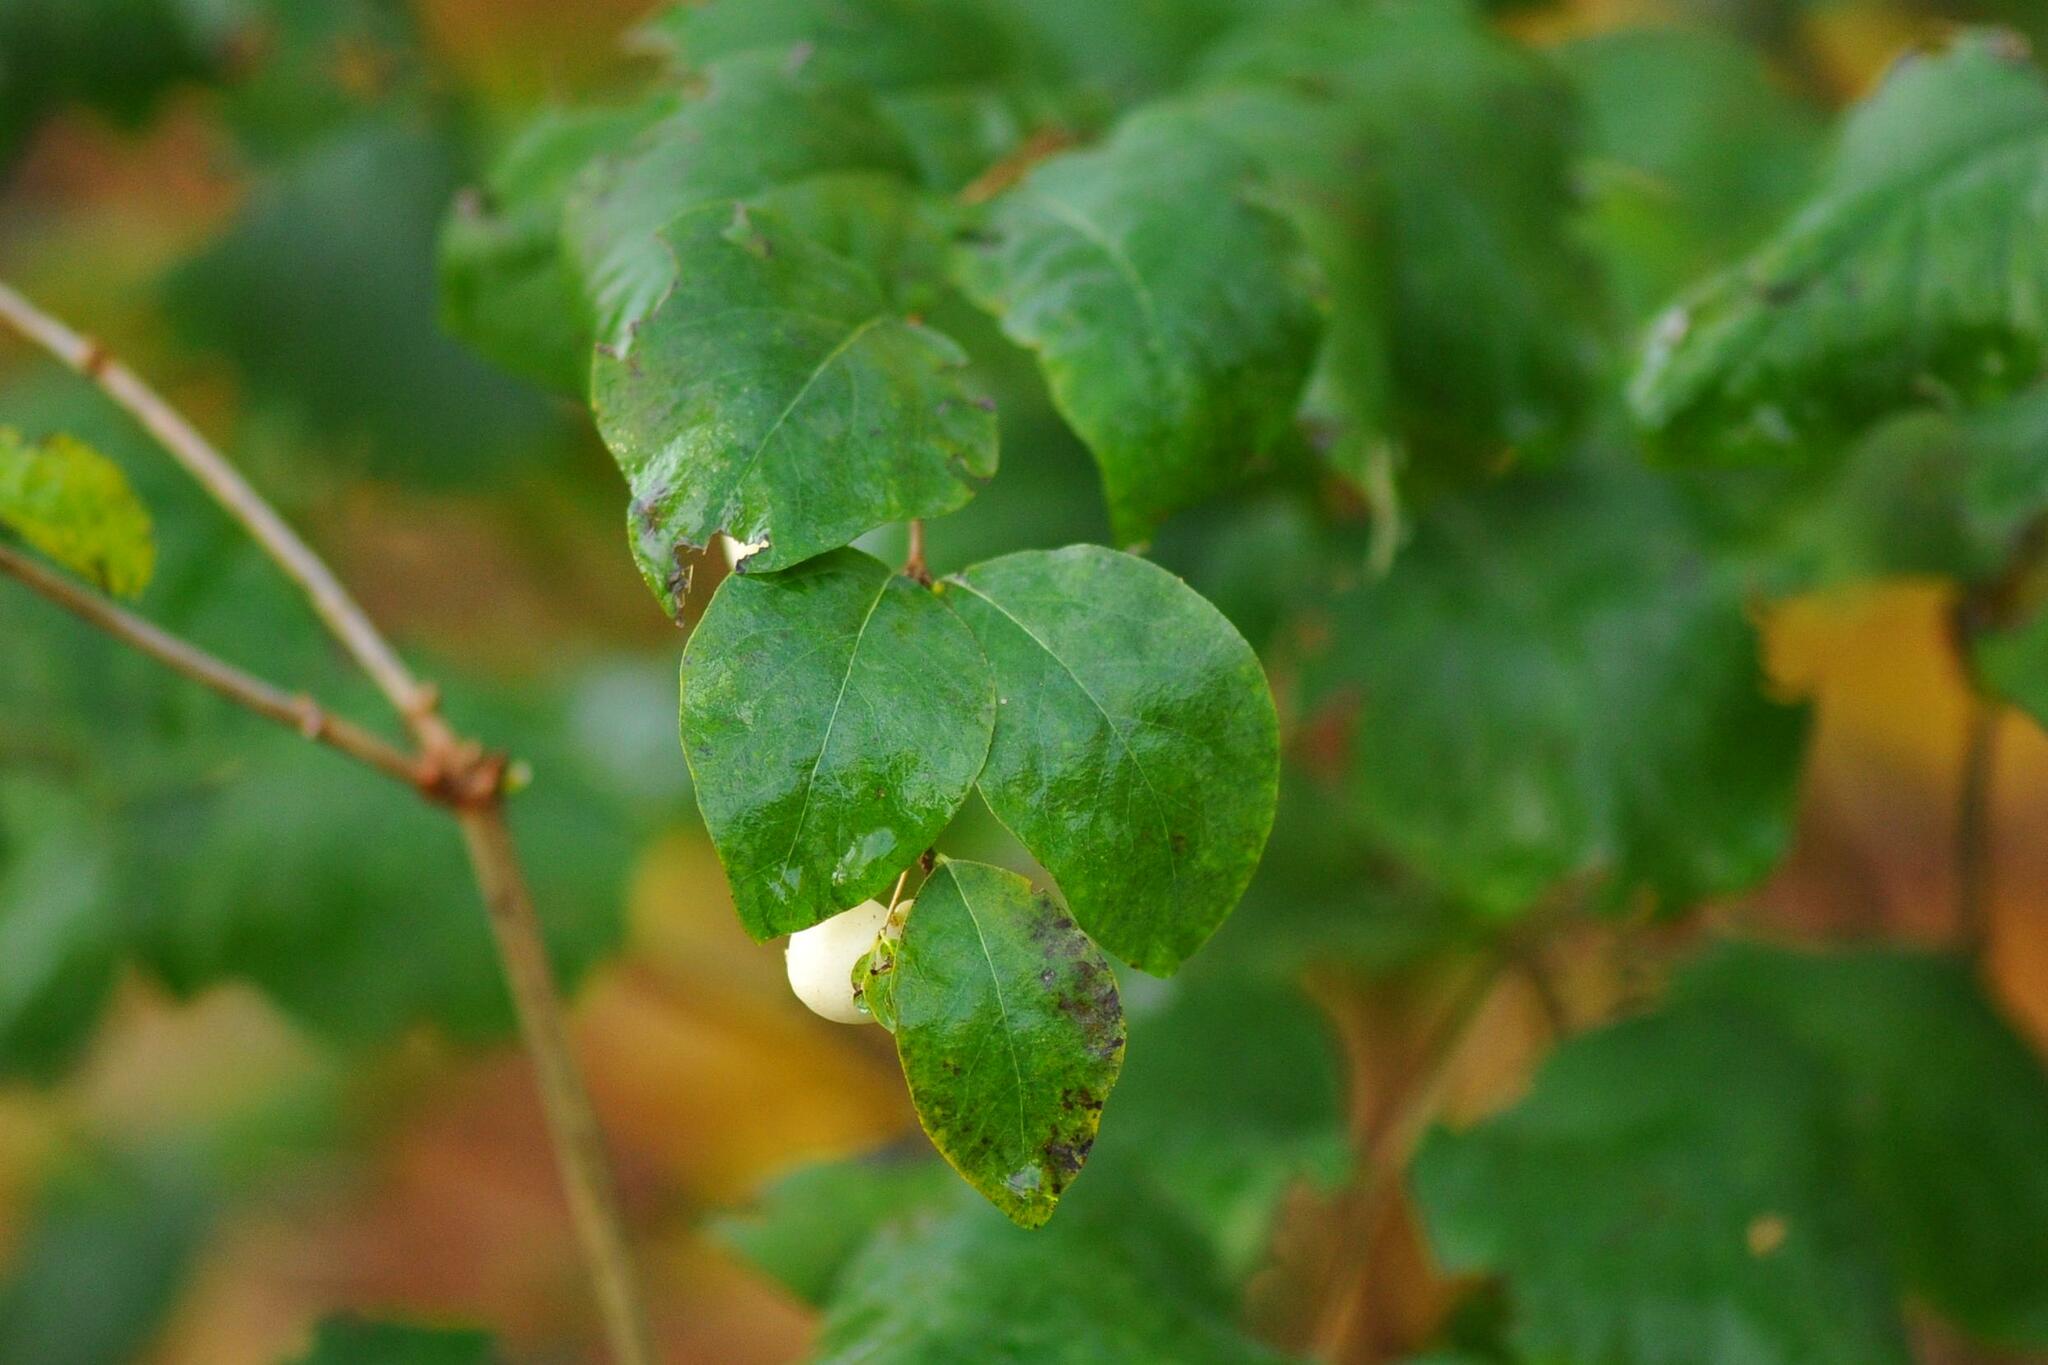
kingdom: Plantae
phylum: Tracheophyta
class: Magnoliopsida
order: Dipsacales
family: Caprifoliaceae
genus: Symphoricarpos
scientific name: Symphoricarpos albus
